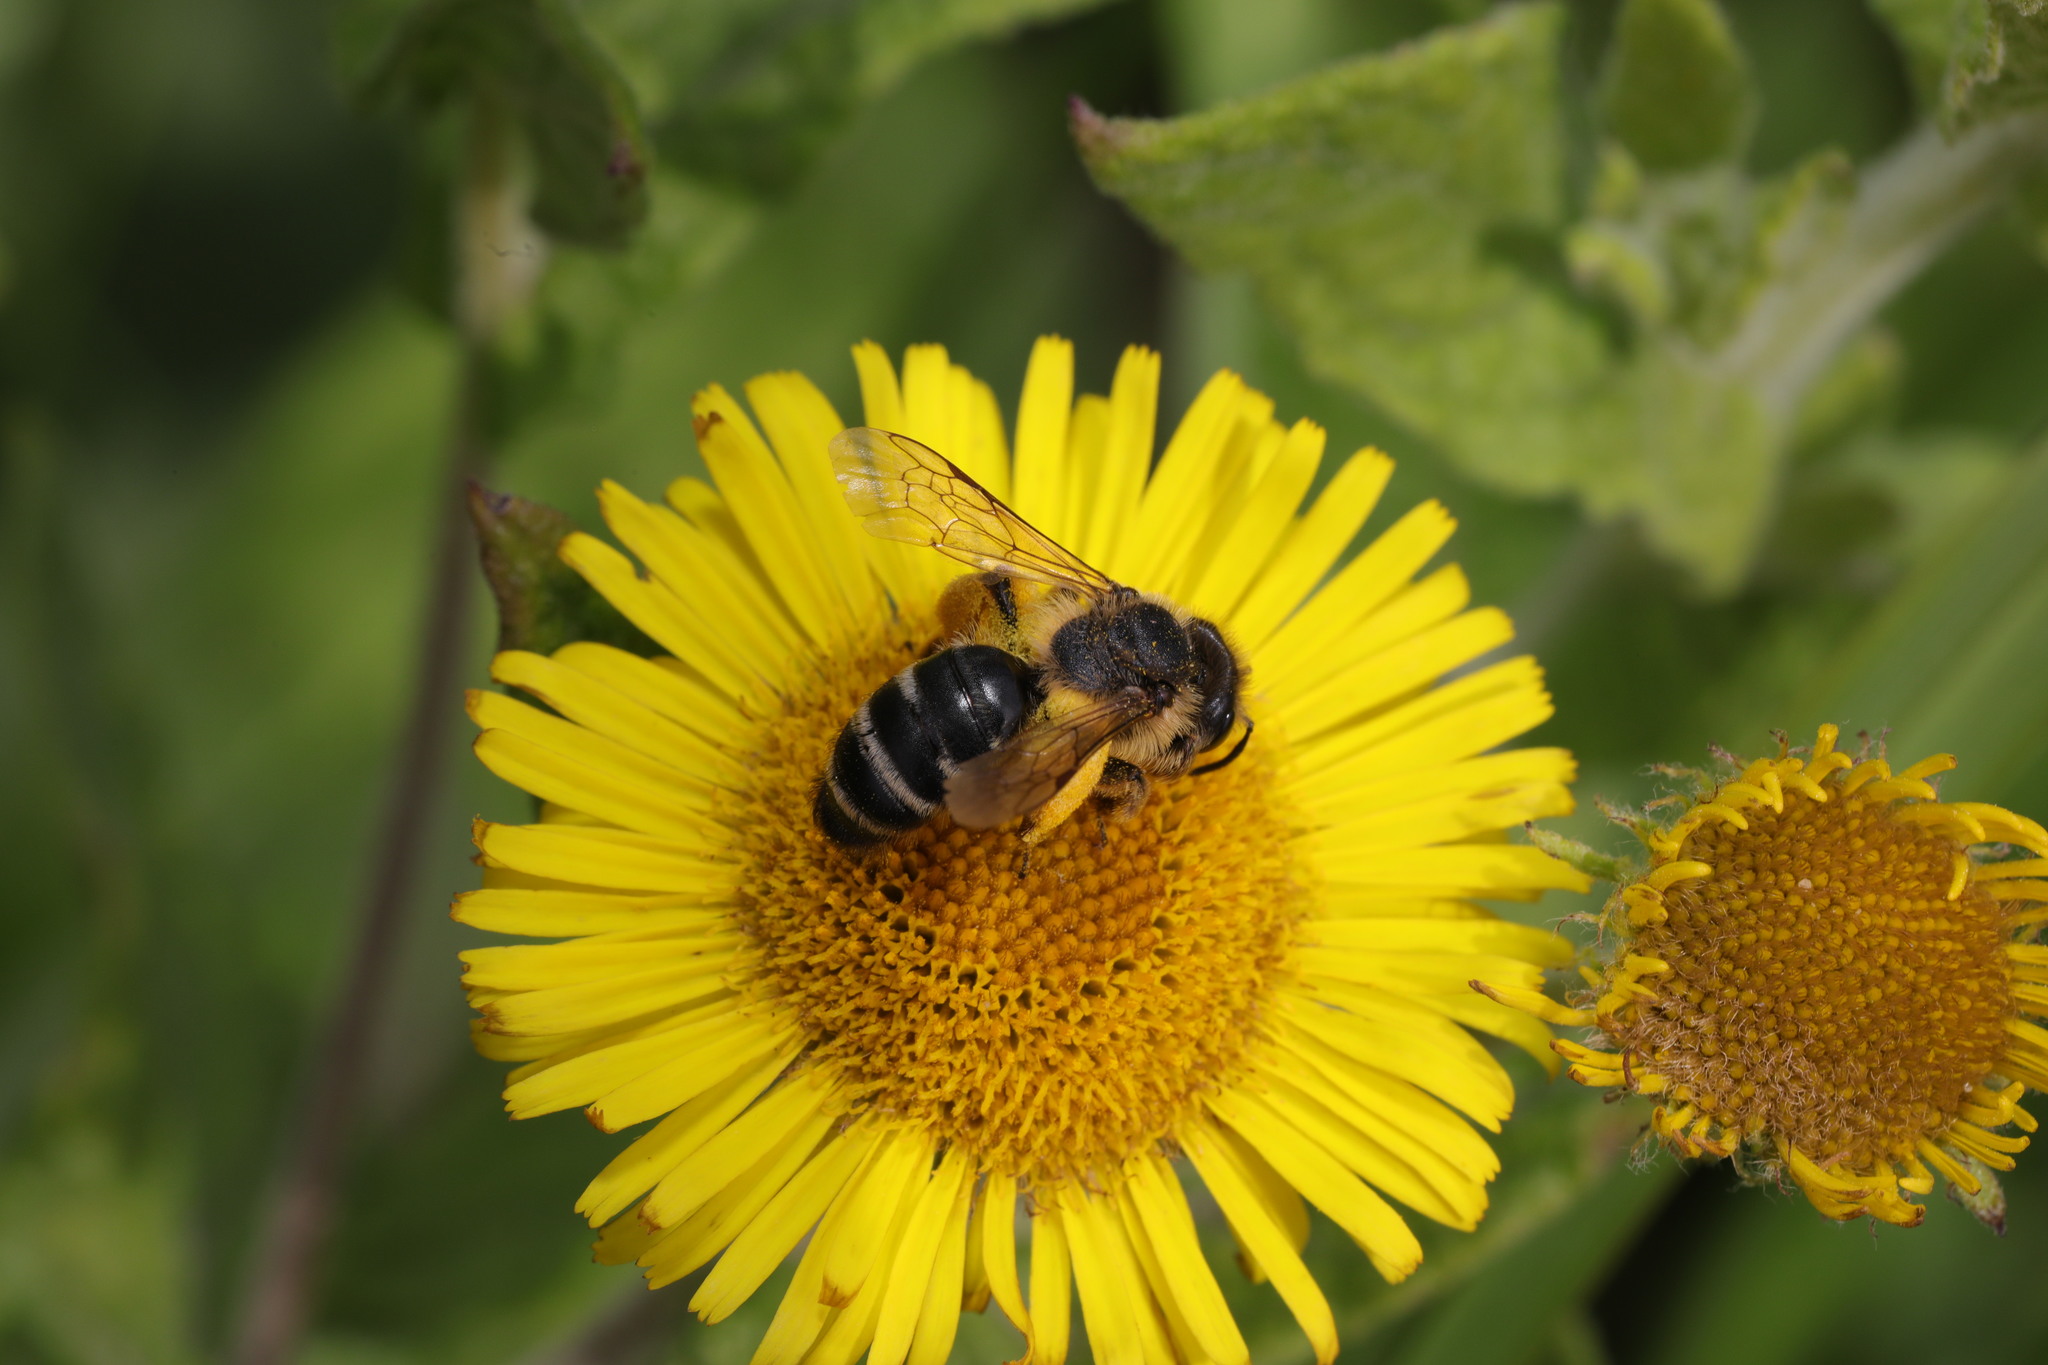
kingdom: Animalia
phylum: Arthropoda
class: Insecta
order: Hymenoptera
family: Andrenidae
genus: Andrena
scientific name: Andrena flavipes
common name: Yellow-legged mining bee
